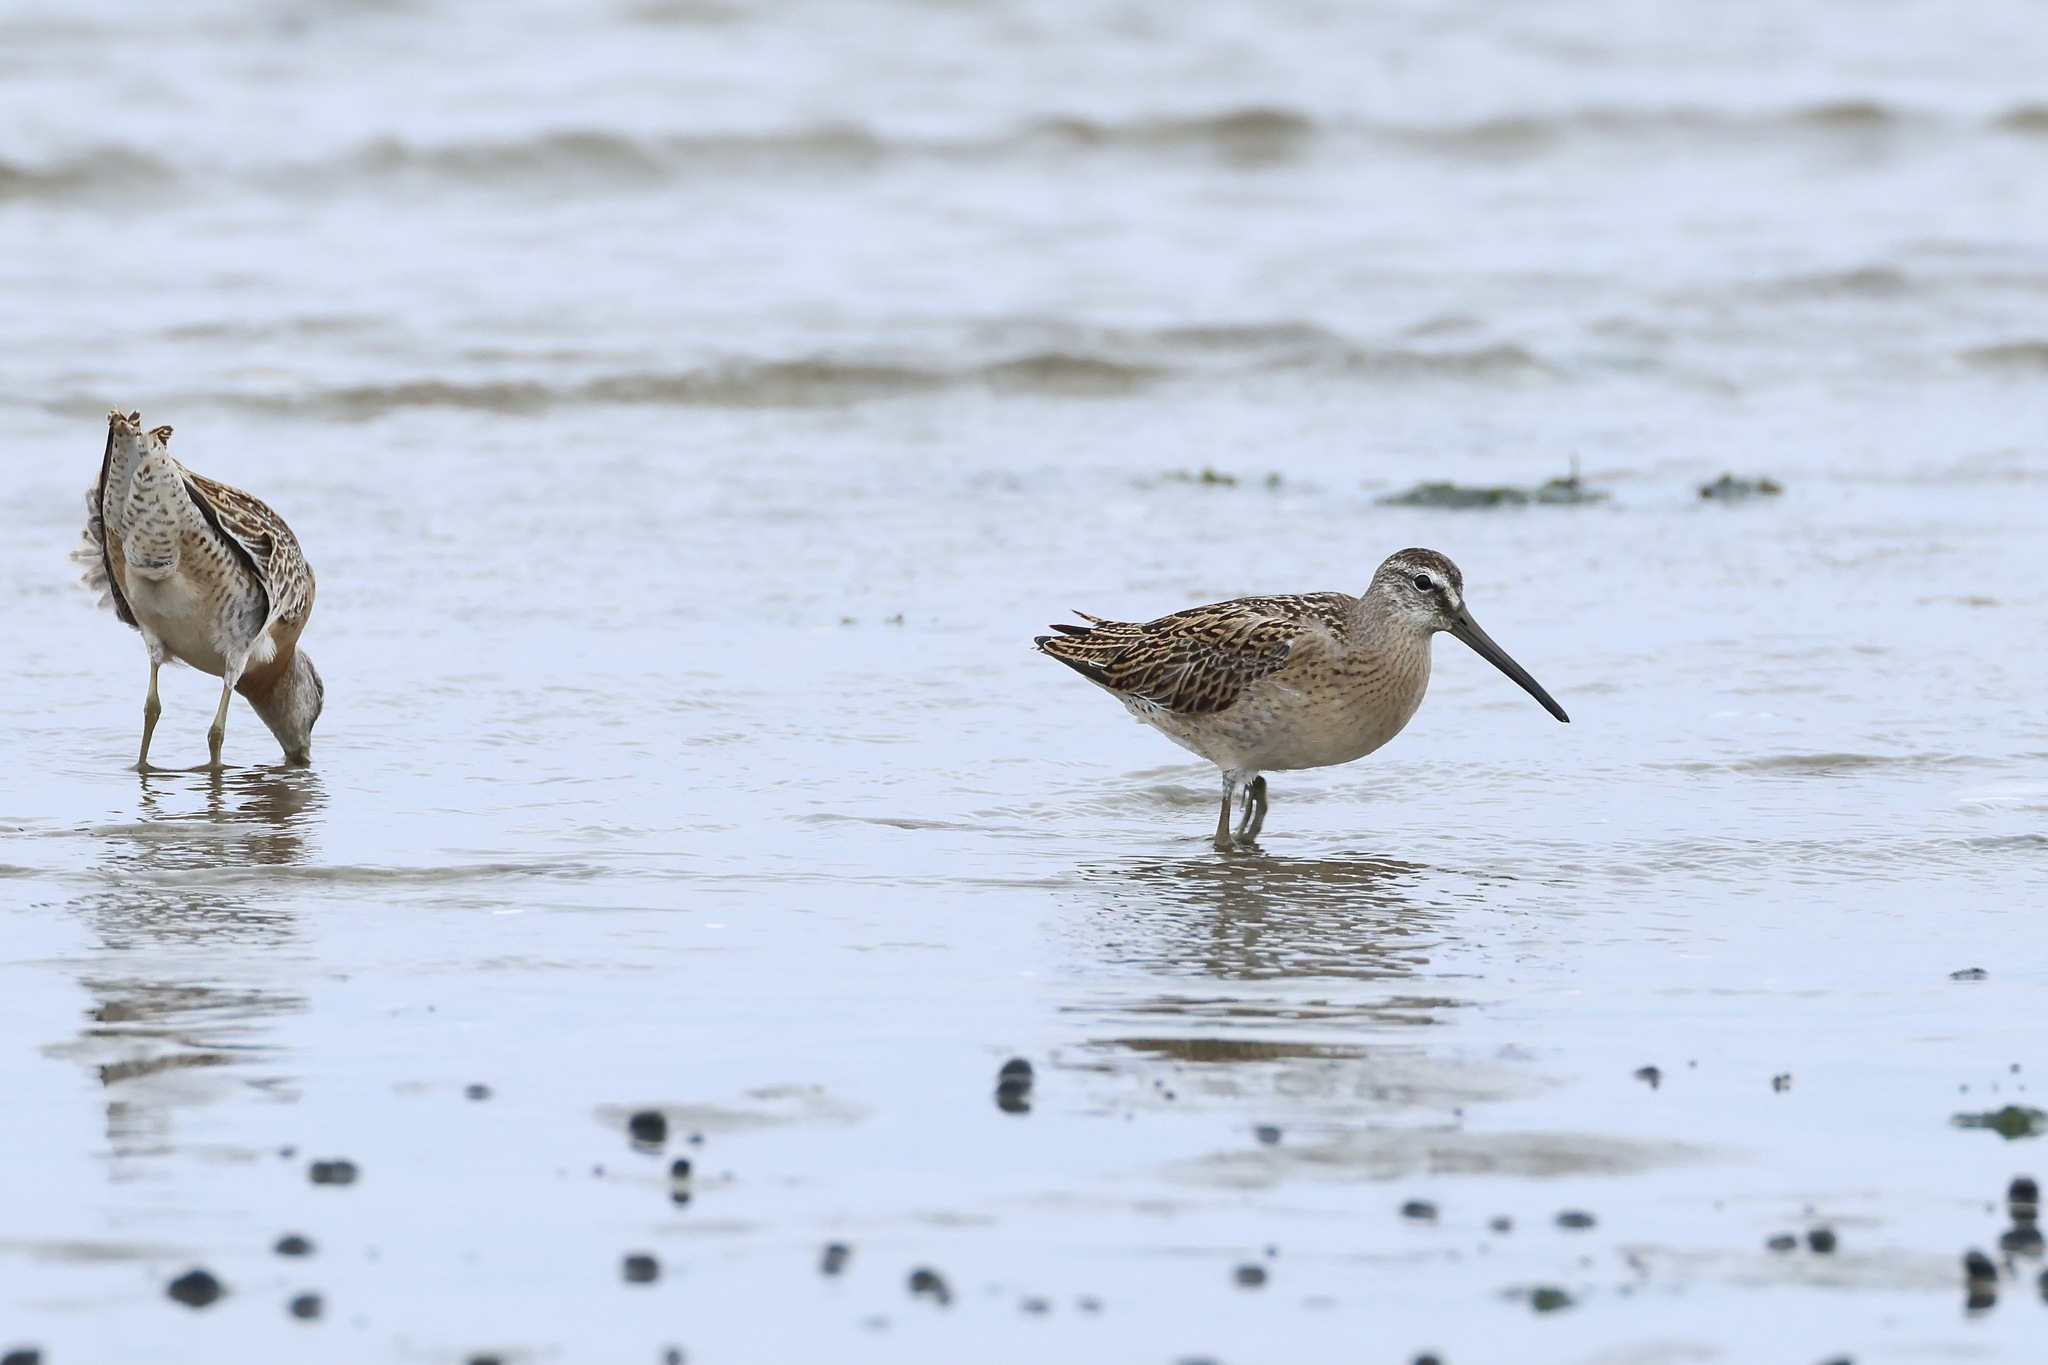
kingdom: Animalia
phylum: Chordata
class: Aves
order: Charadriiformes
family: Scolopacidae
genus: Limnodromus
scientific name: Limnodromus griseus
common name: Short-billed dowitcher
